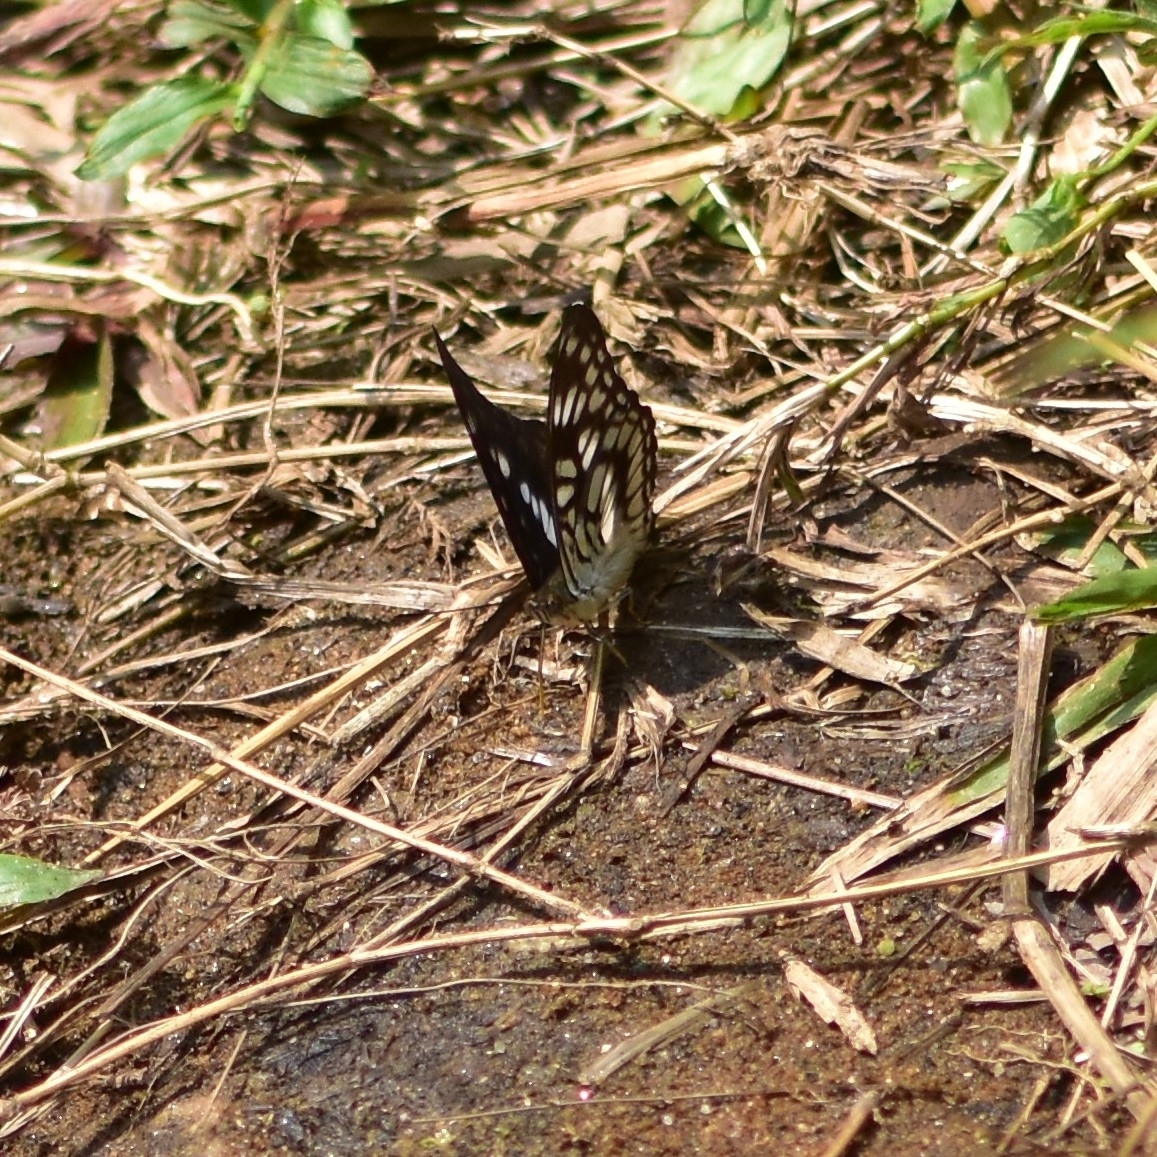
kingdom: Animalia
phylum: Arthropoda
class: Insecta
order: Lepidoptera
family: Nymphalidae
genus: Parathyma
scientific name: Parathyma ranga
